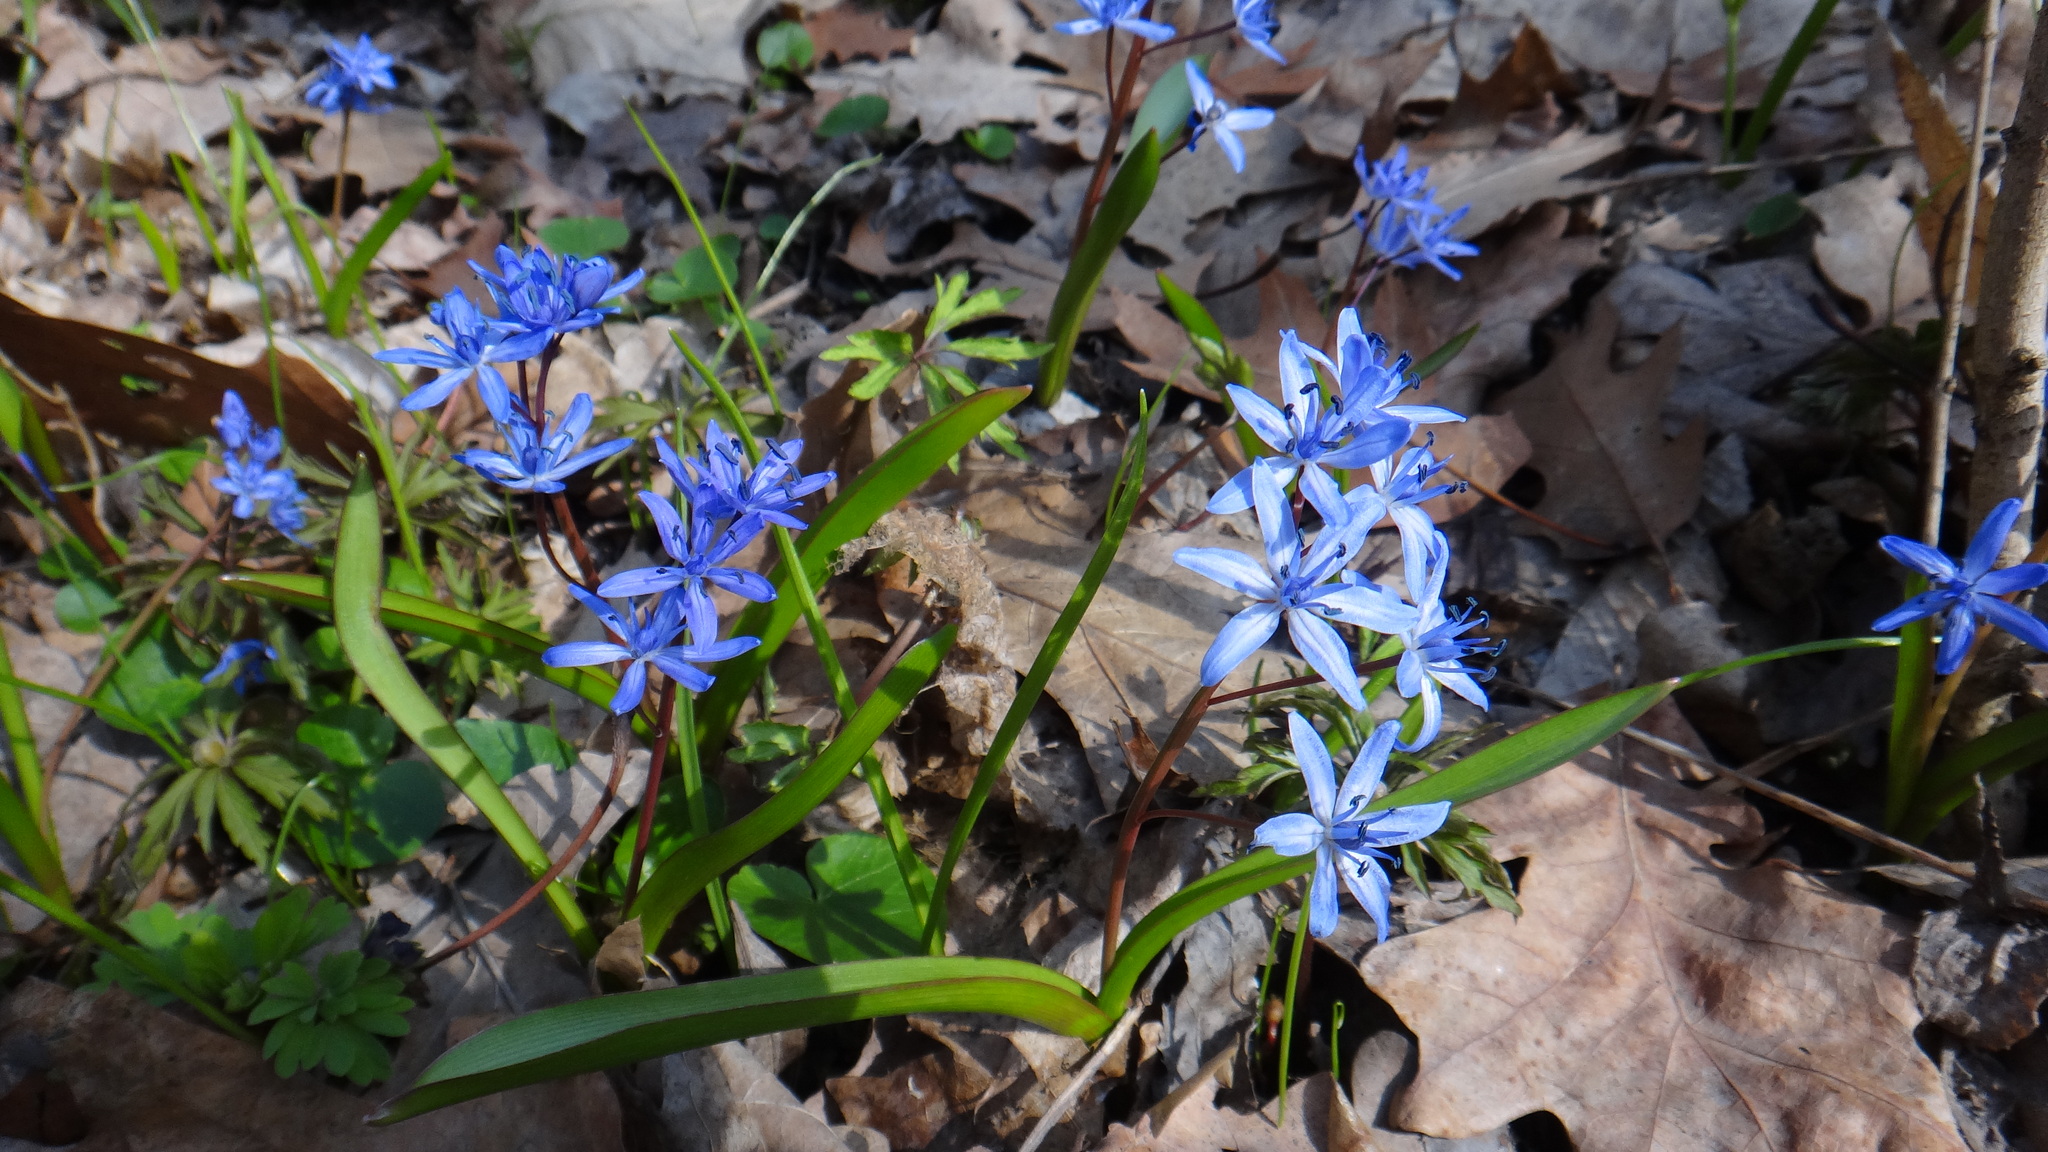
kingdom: Plantae
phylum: Tracheophyta
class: Liliopsida
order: Asparagales
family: Asparagaceae
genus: Scilla
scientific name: Scilla bifolia
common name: Alpine squill
